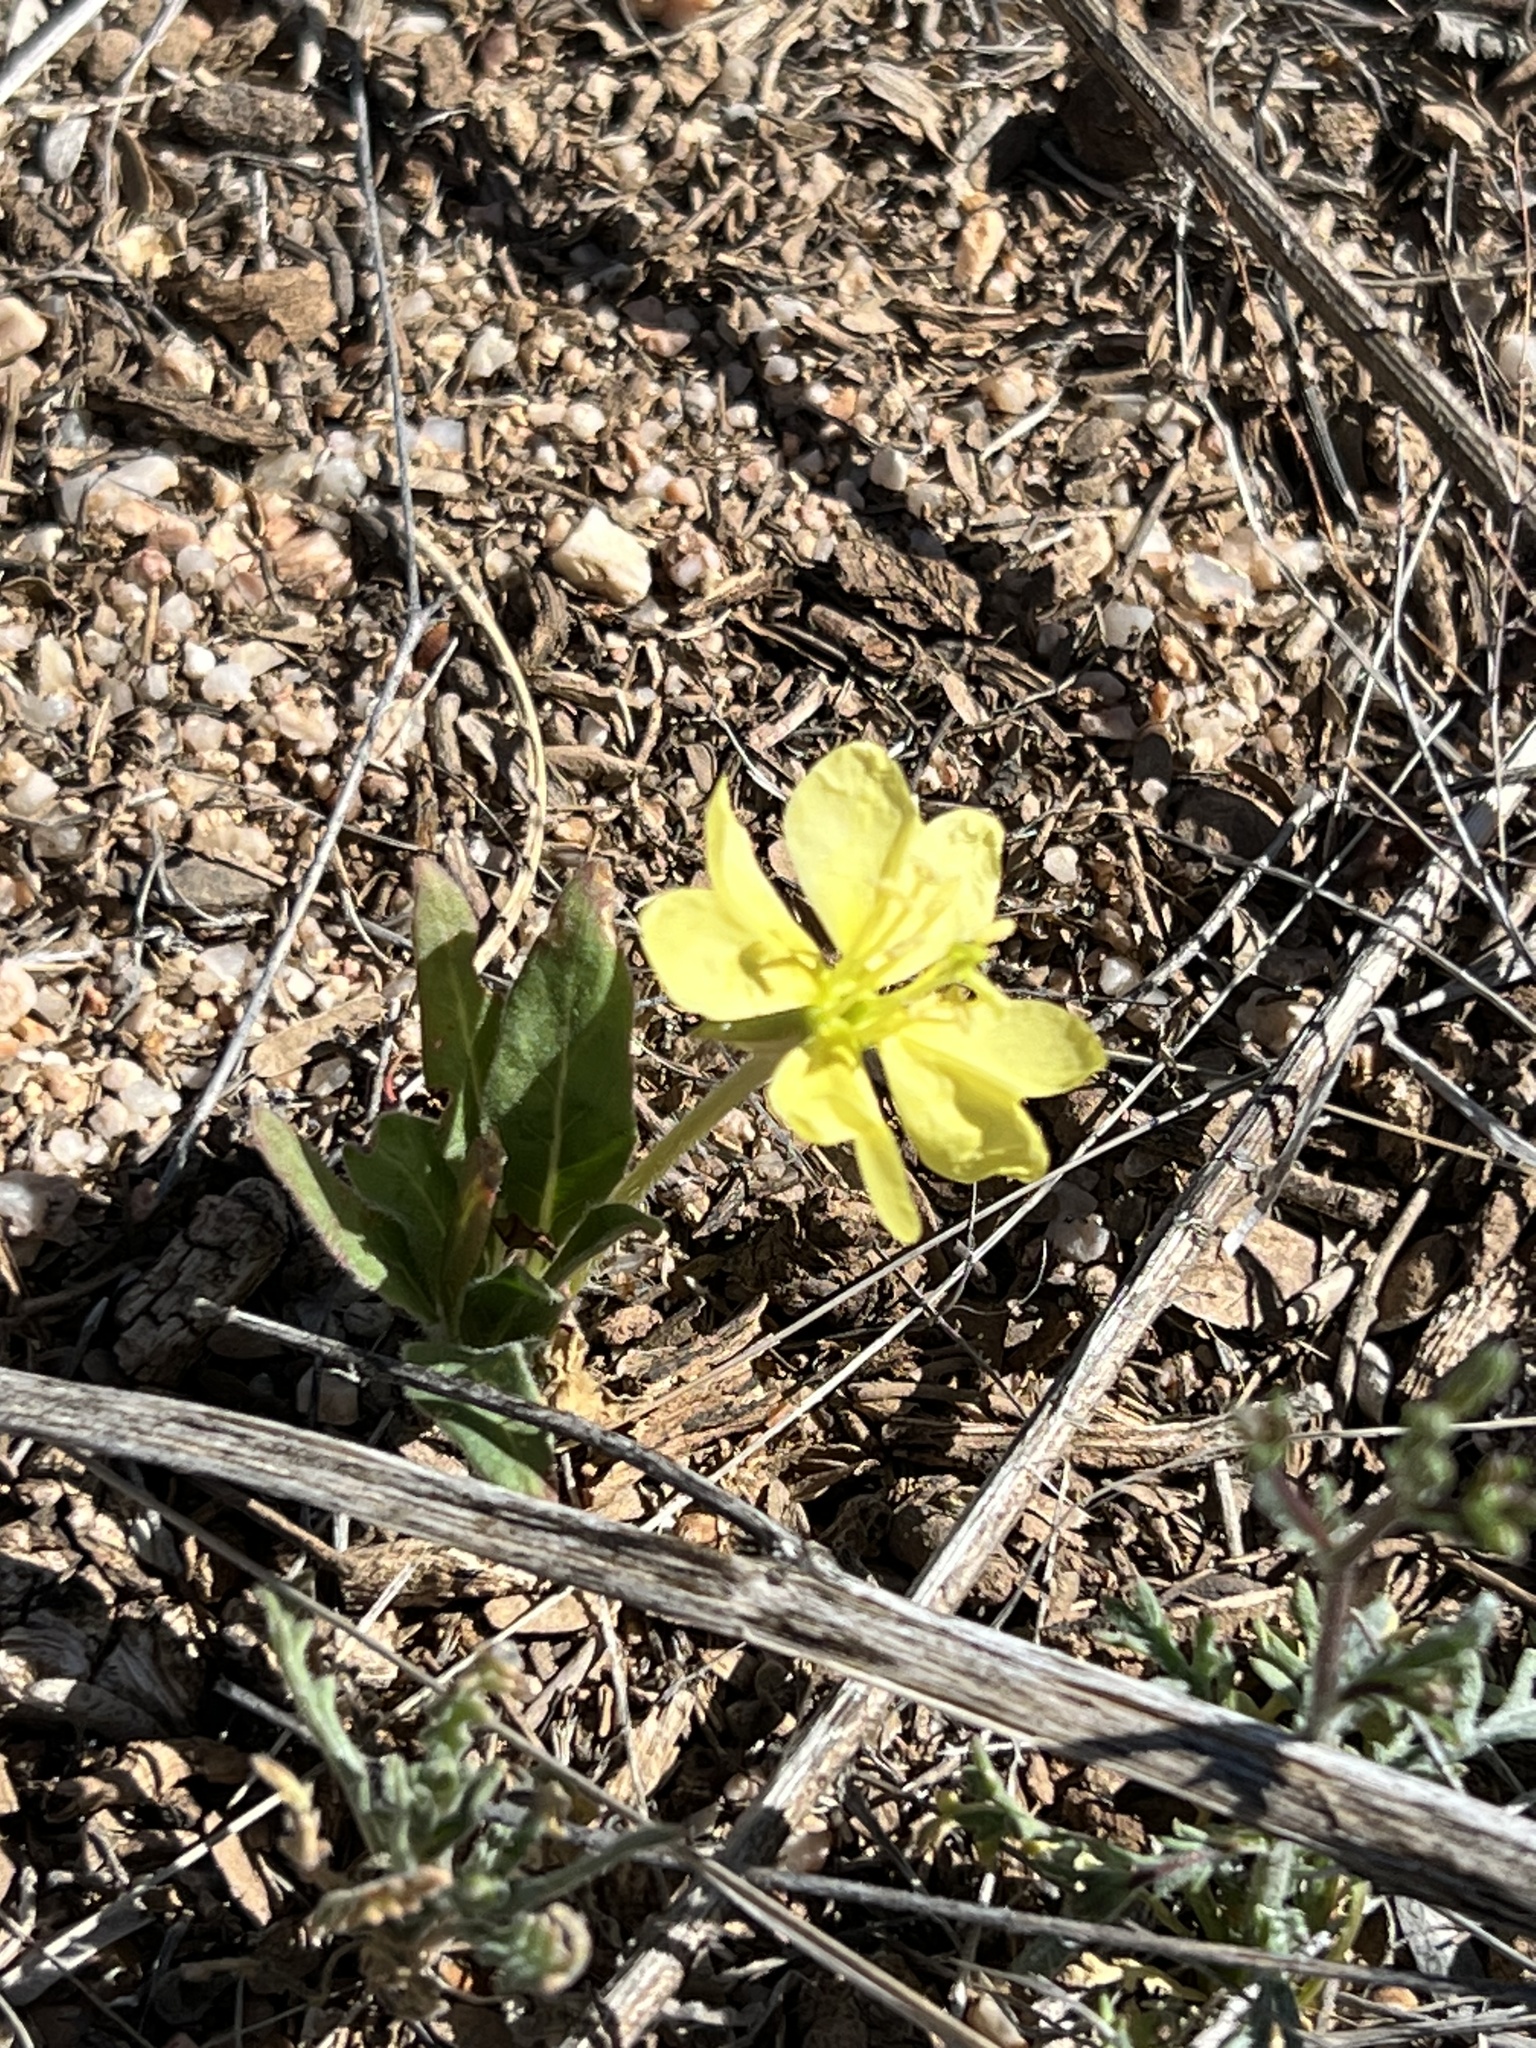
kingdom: Plantae
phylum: Tracheophyta
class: Magnoliopsida
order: Myrtales
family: Onagraceae
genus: Oenothera
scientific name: Oenothera primiveris
